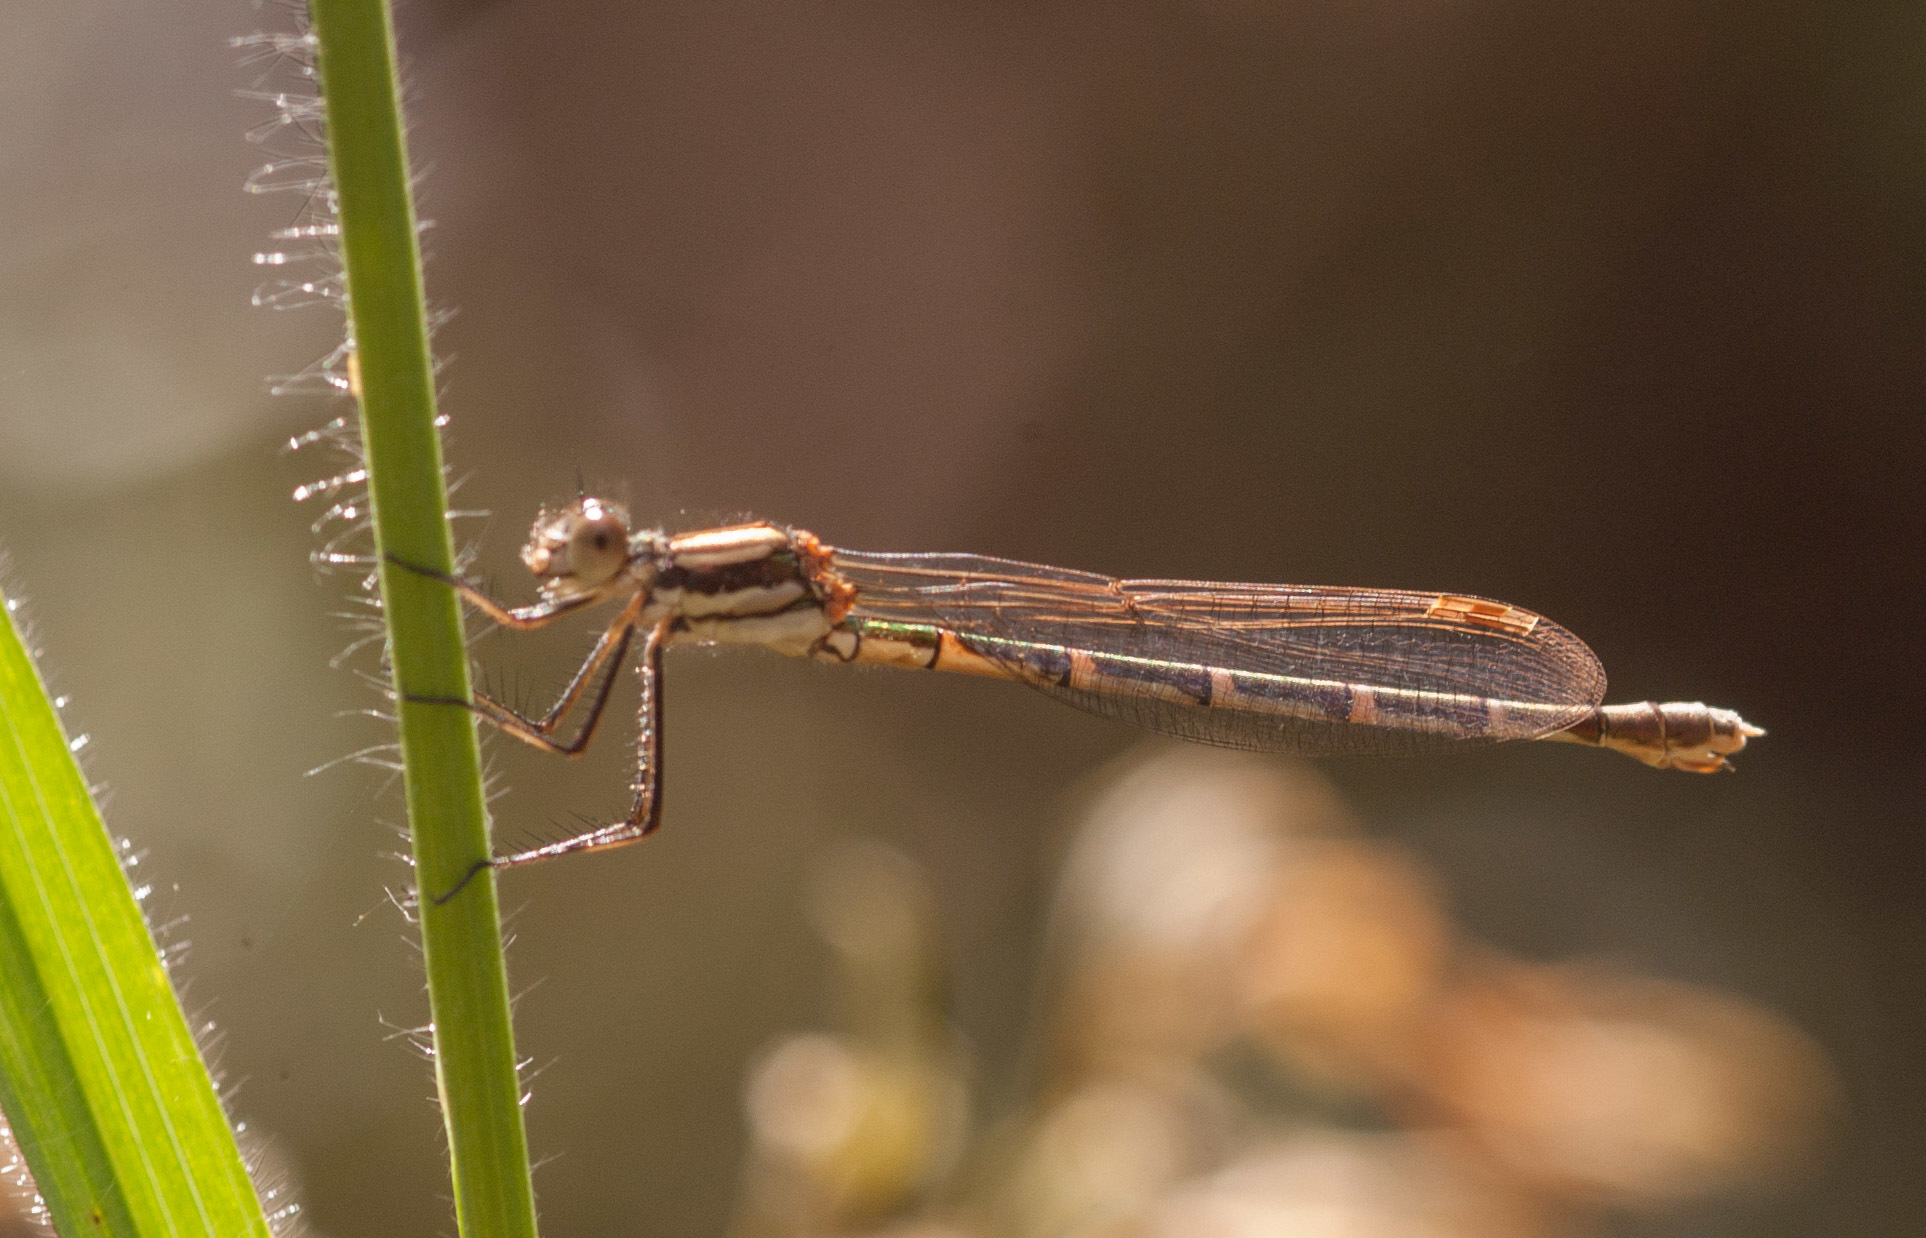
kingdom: Animalia
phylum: Arthropoda
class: Insecta
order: Odonata
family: Lestidae
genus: Austrolestes
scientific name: Austrolestes annulosus
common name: Blue ringtail
